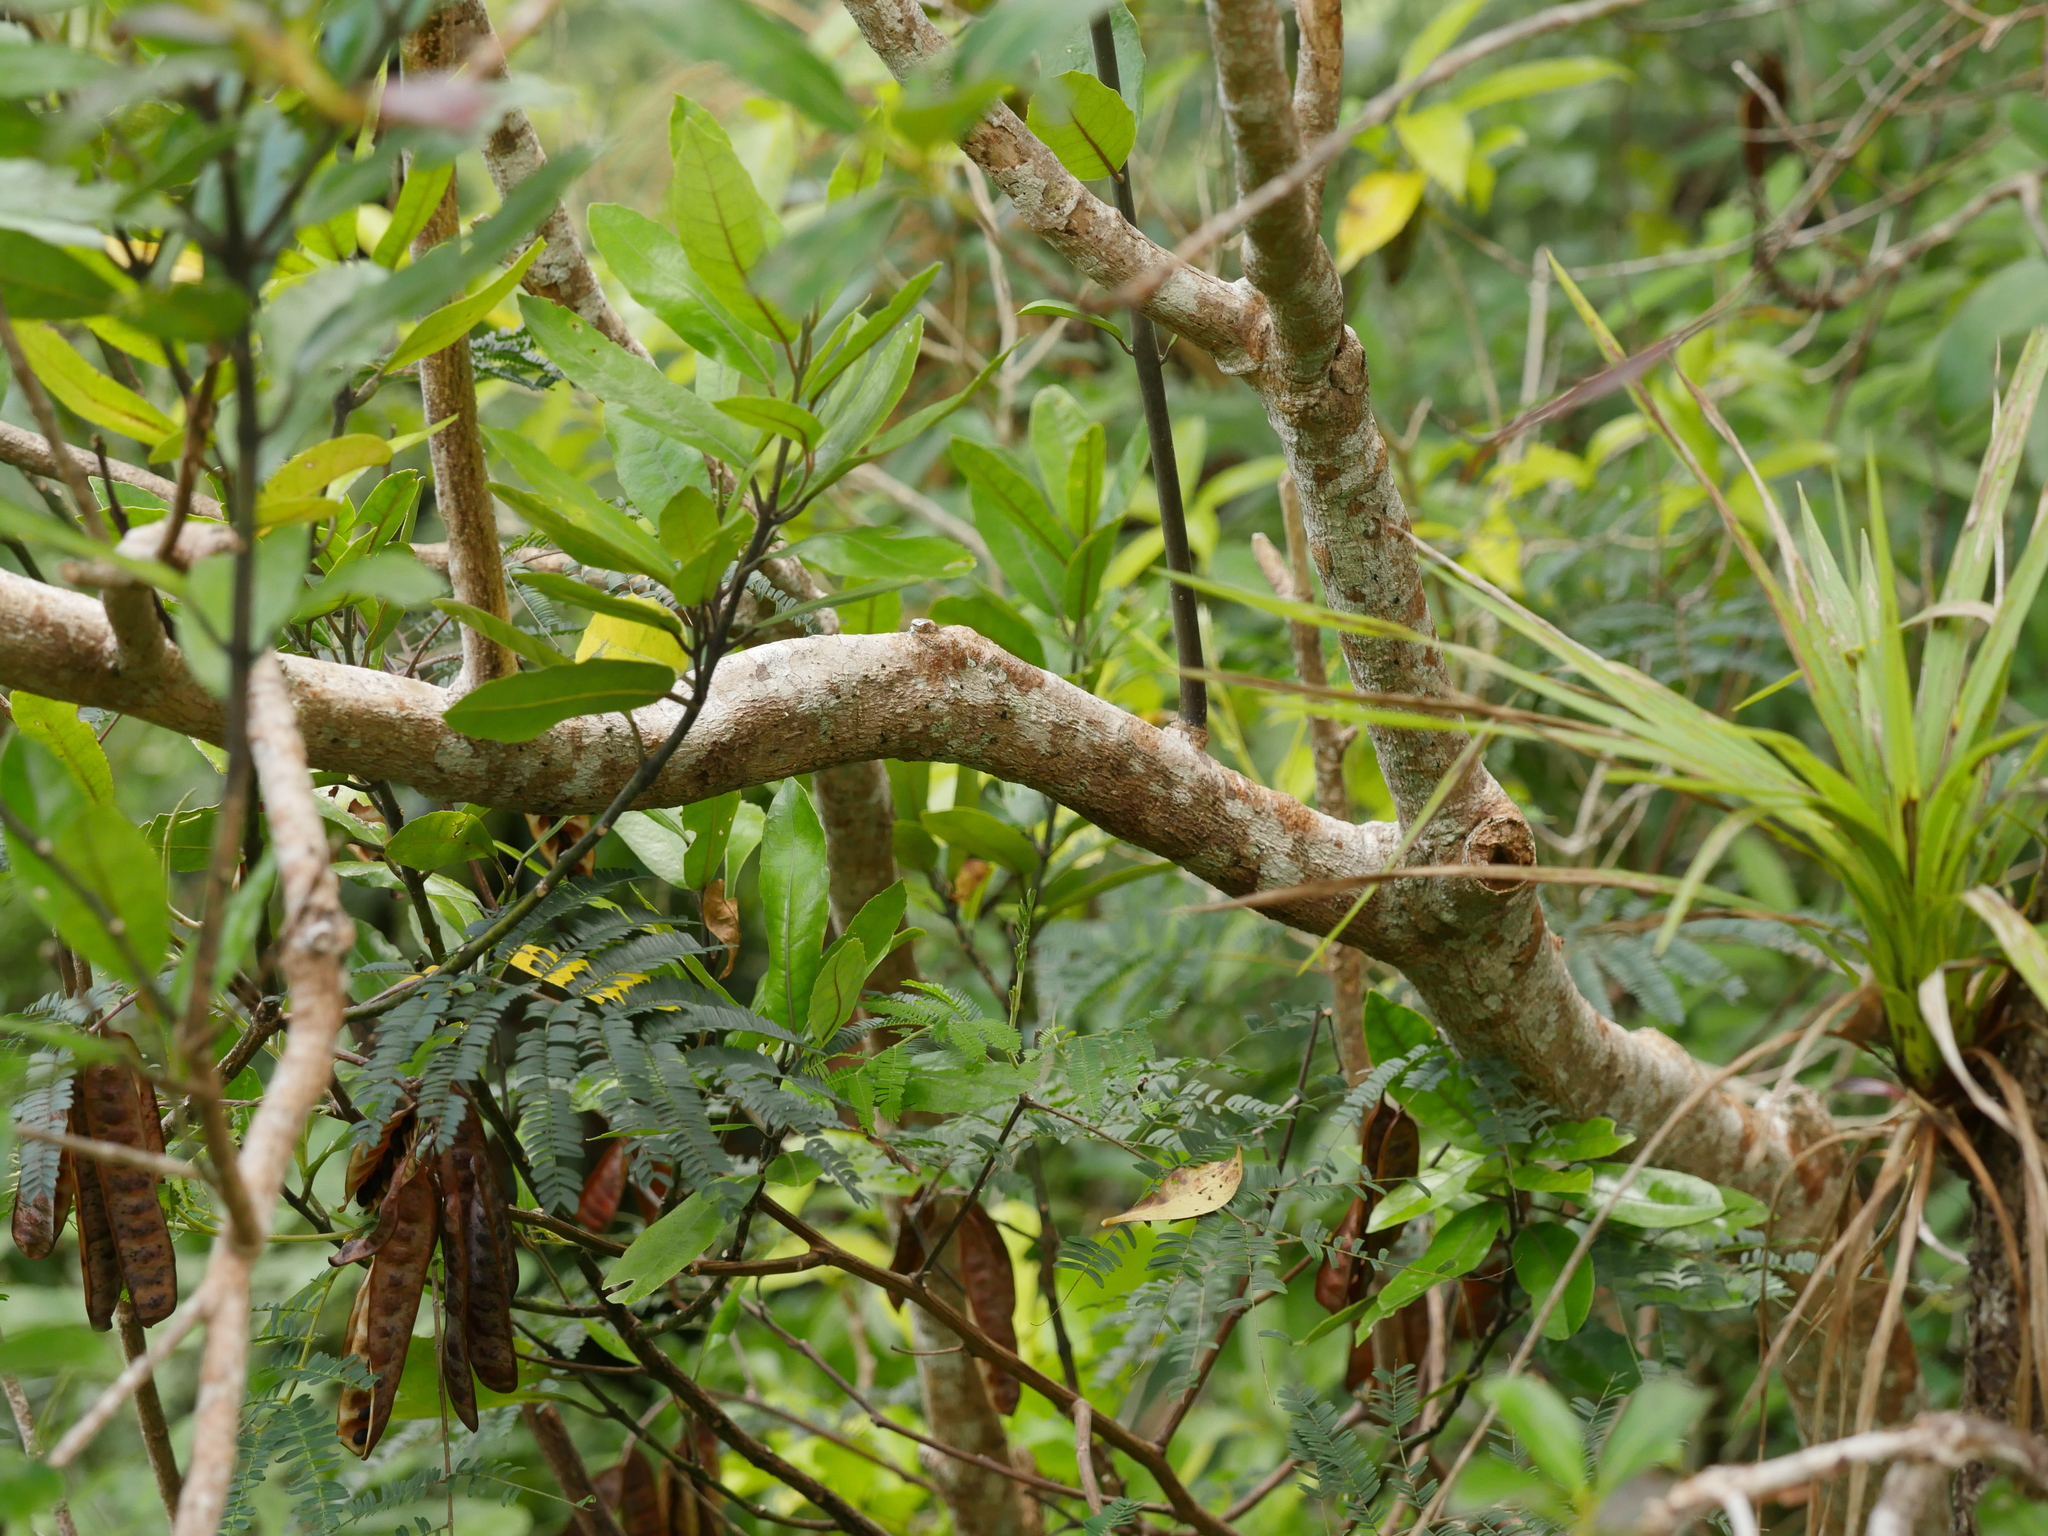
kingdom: Plantae
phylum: Tracheophyta
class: Magnoliopsida
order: Laurales
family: Monimiaceae
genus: Hedycarya
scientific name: Hedycarya arborea
